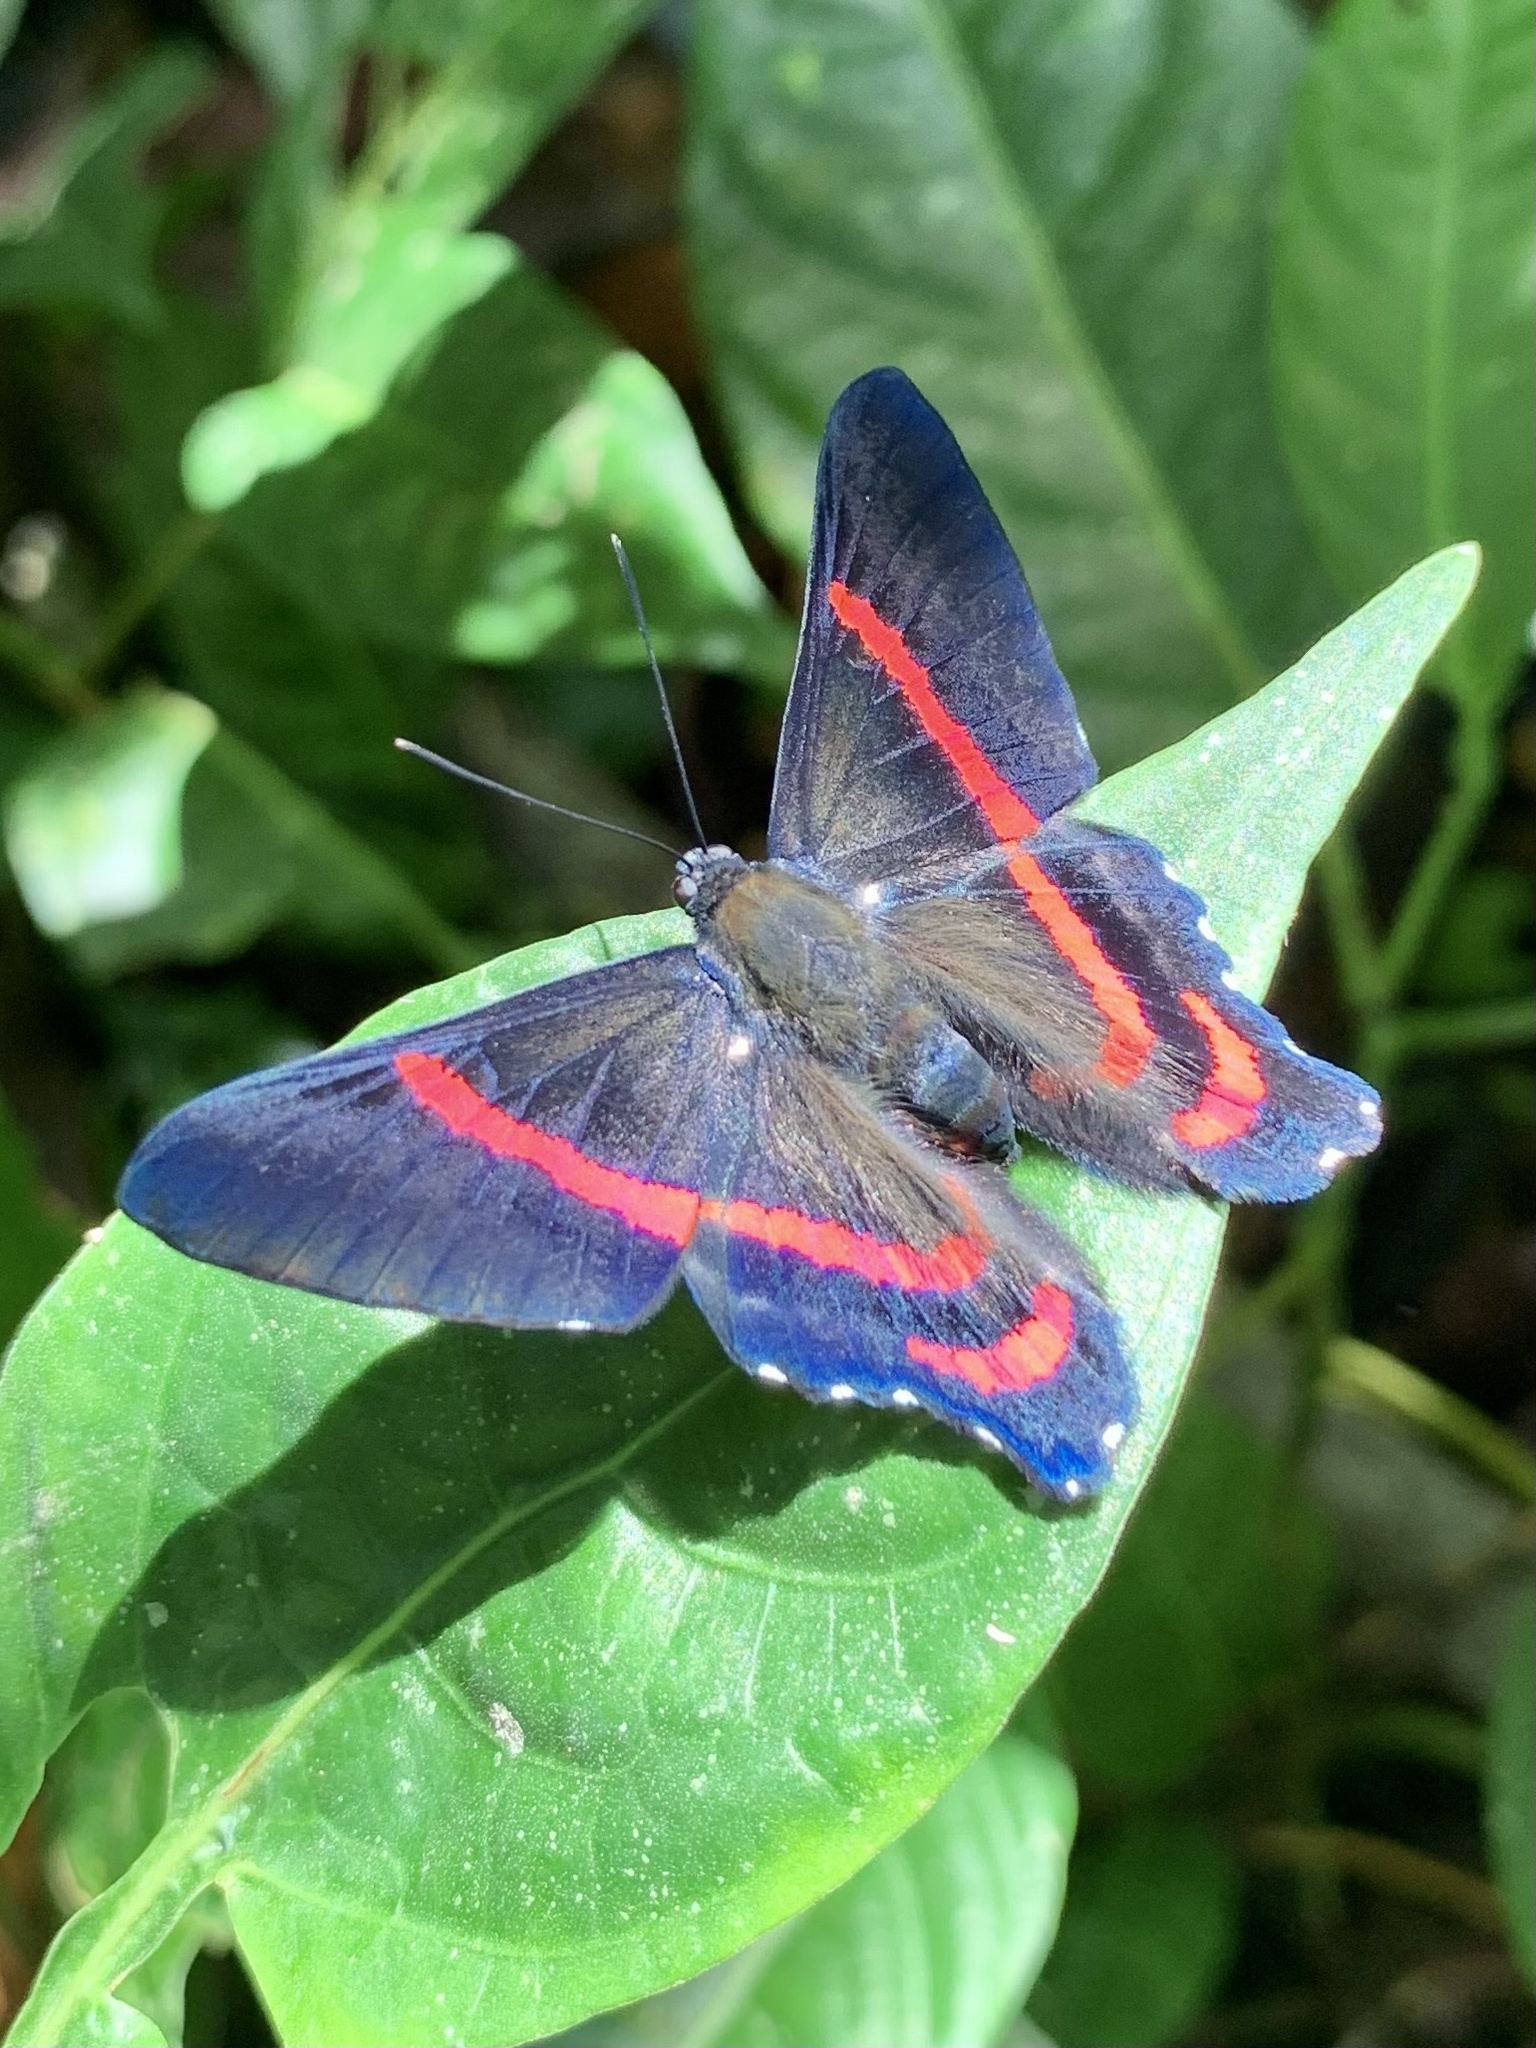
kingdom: Animalia
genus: Ancyluris
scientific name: Ancyluris meliboeus
